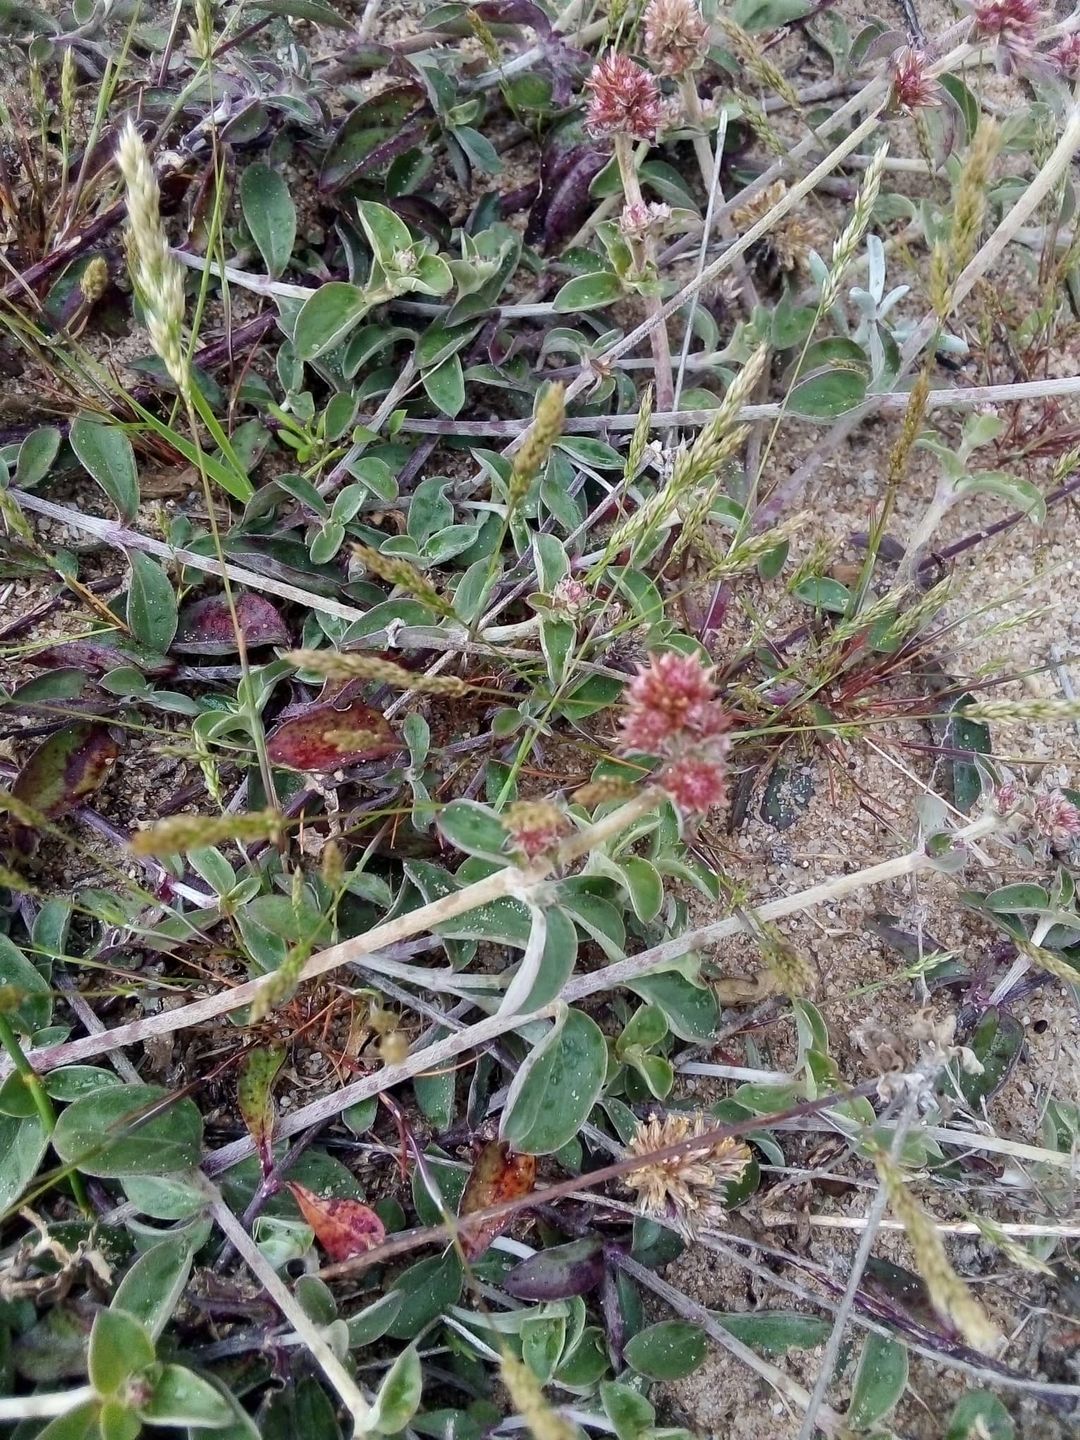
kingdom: Plantae
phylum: Tracheophyta
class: Magnoliopsida
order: Caryophyllales
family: Amaranthaceae
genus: Gomphrena
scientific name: Gomphrena perennis
